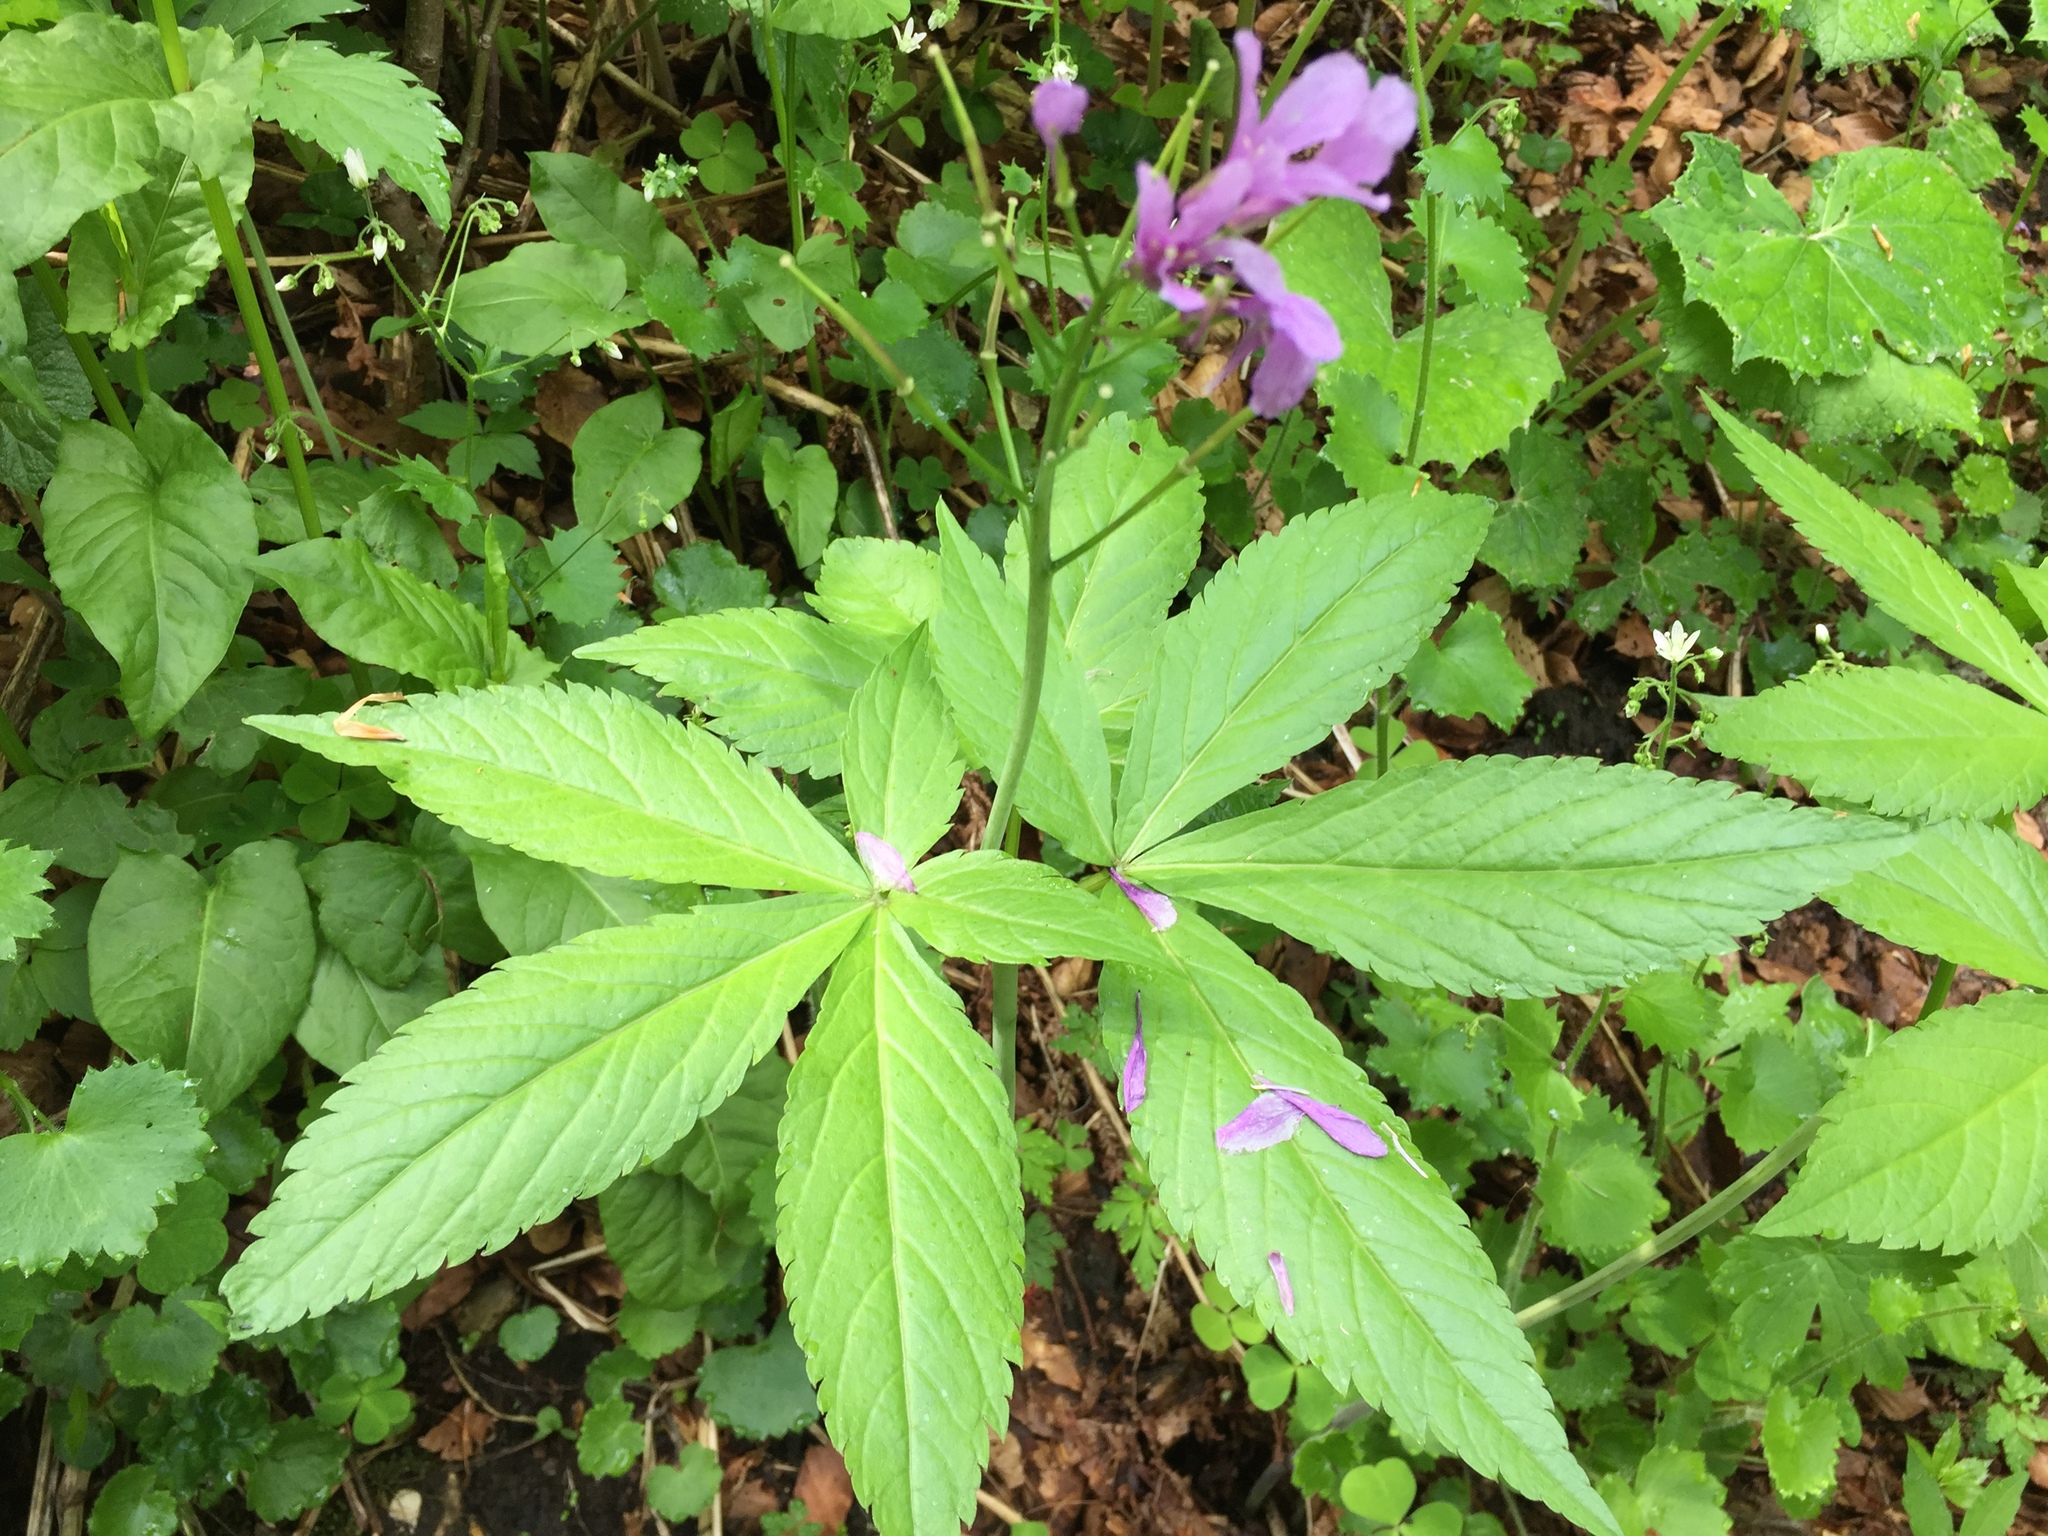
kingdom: Plantae
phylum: Tracheophyta
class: Magnoliopsida
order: Brassicales
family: Brassicaceae
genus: Cardamine
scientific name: Cardamine pentaphyllos
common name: Five-leaflet bitter-cress
